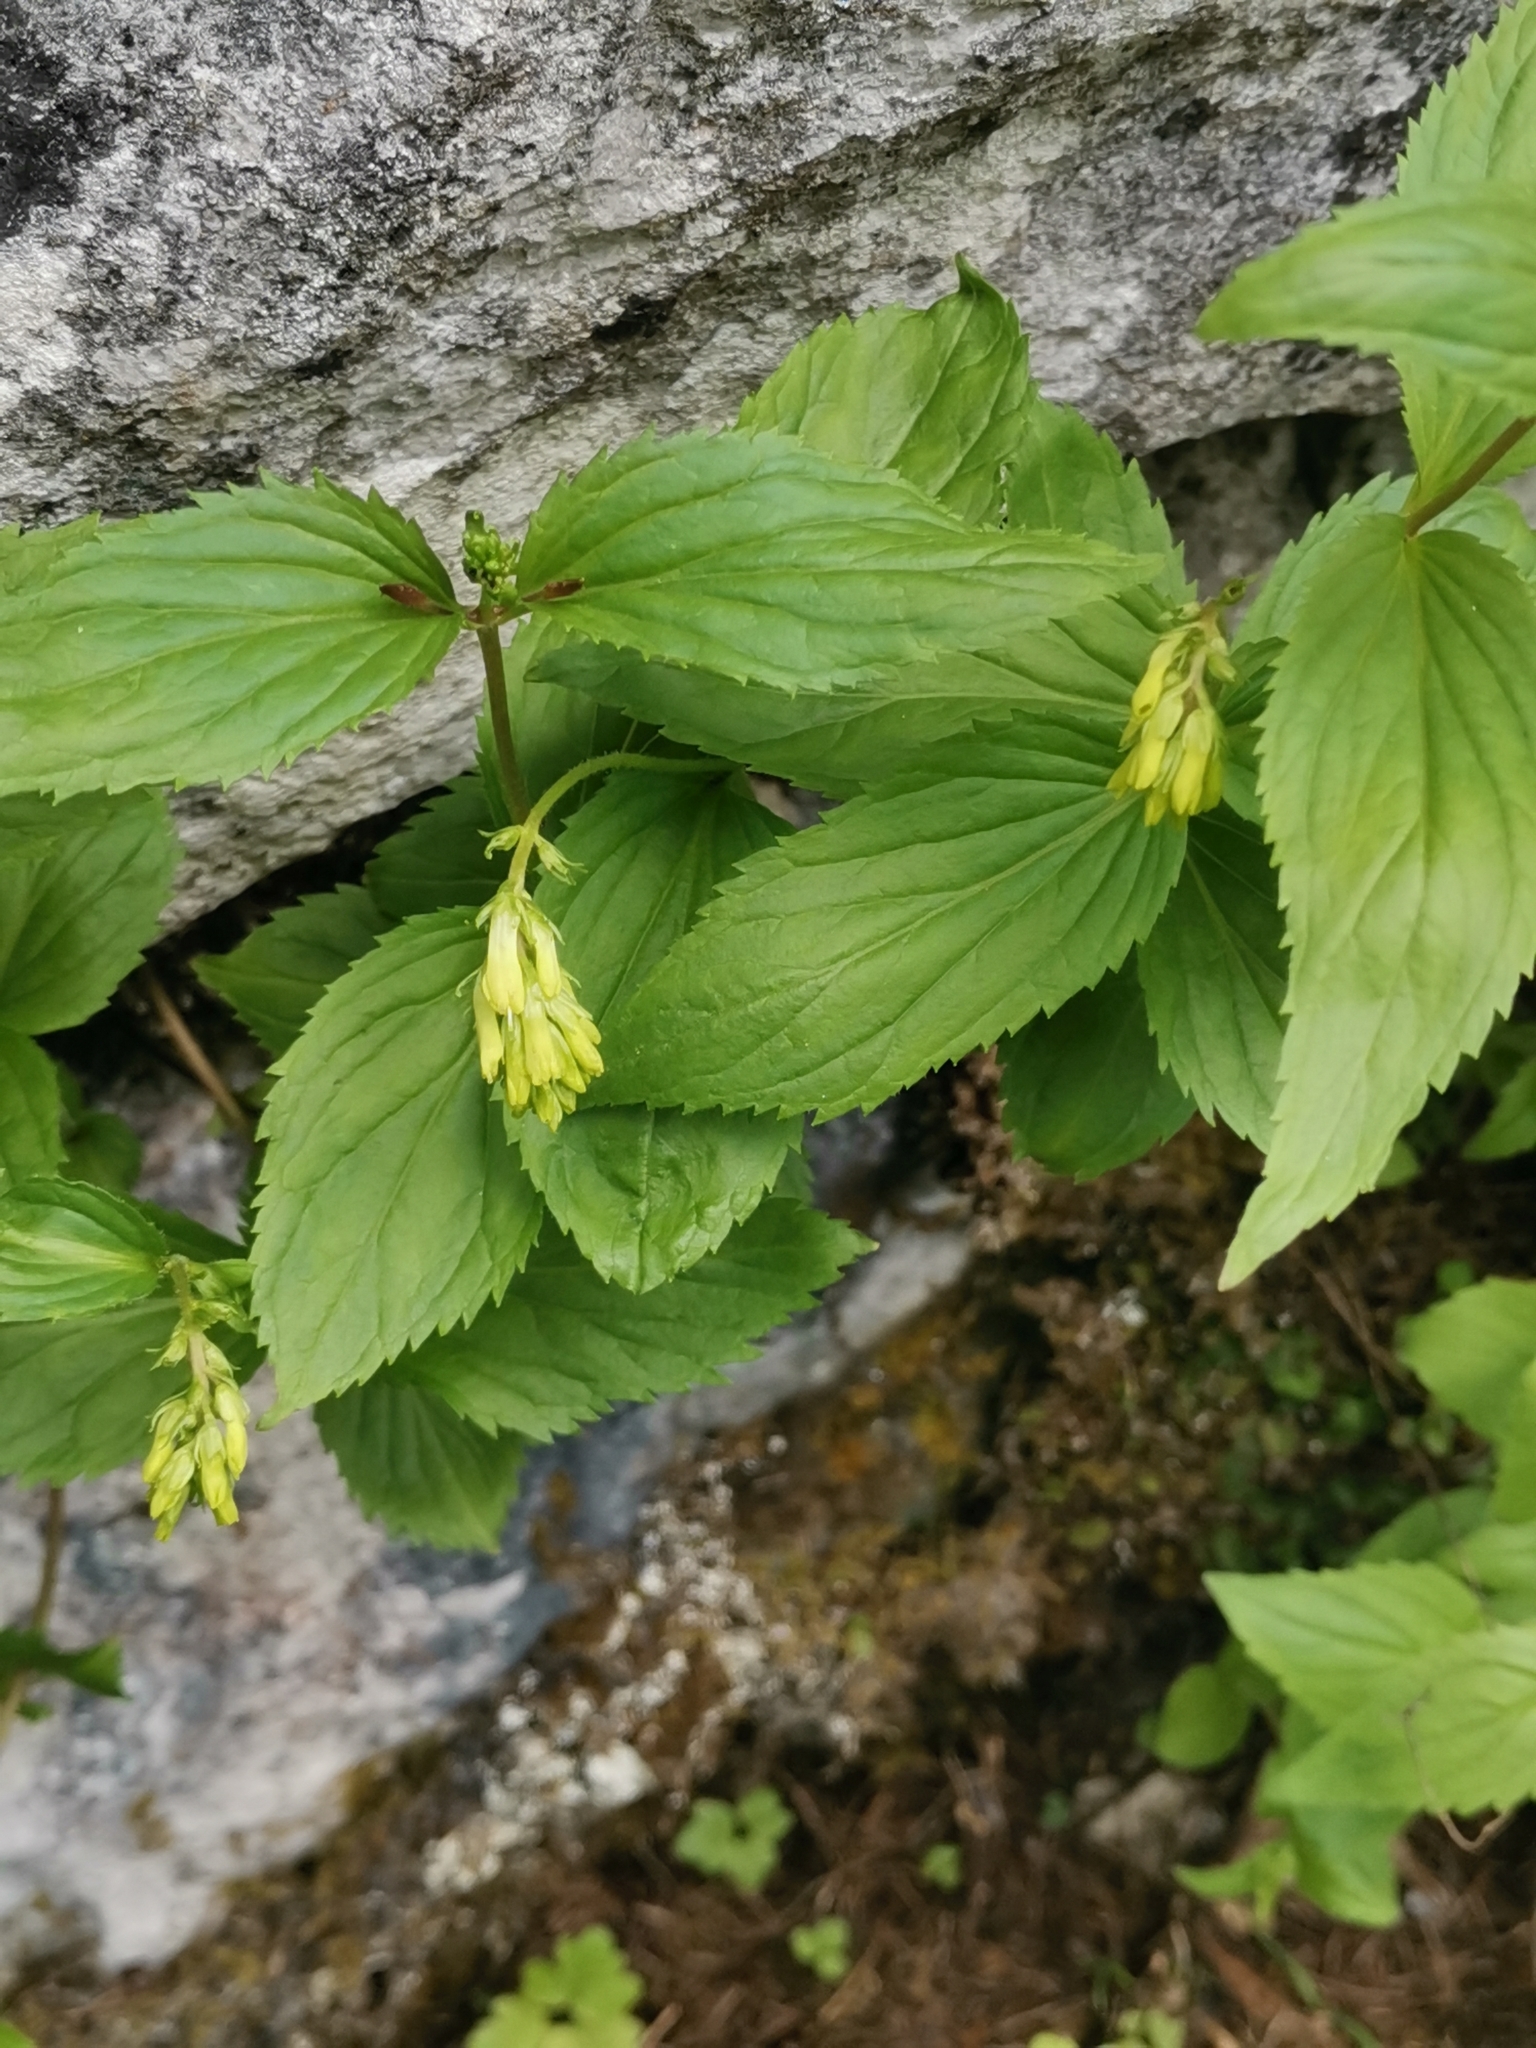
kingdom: Plantae
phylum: Tracheophyta
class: Magnoliopsida
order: Lamiales
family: Plantaginaceae
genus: Paederota
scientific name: Paederota lutea
